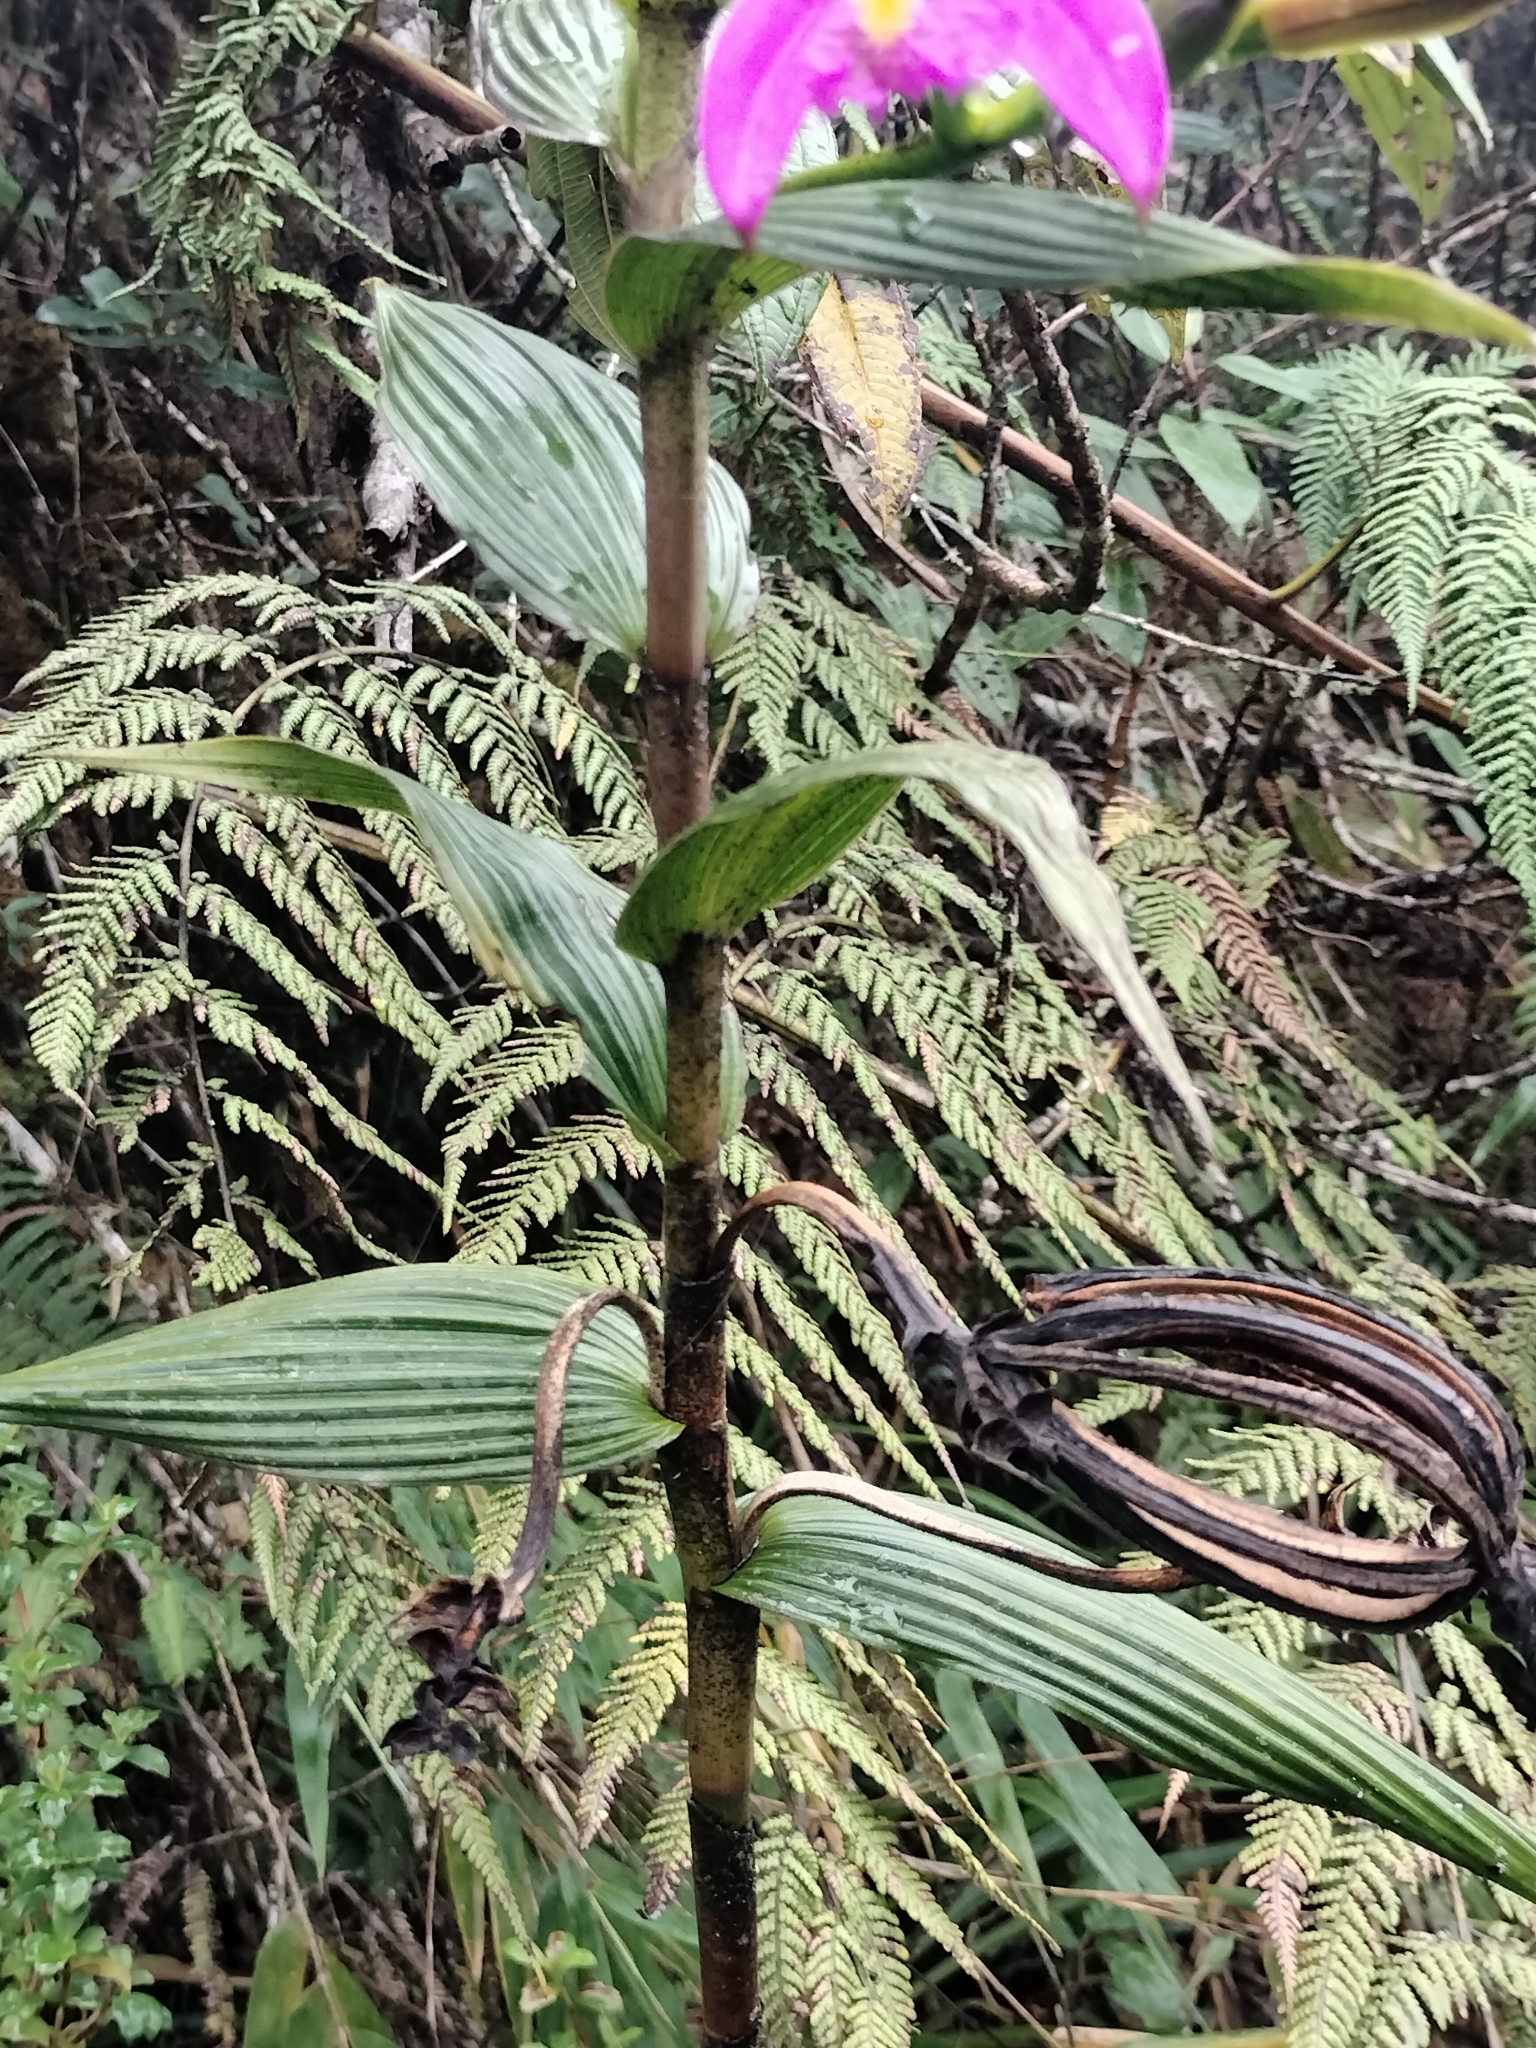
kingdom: Plantae
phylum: Tracheophyta
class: Liliopsida
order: Asparagales
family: Orchidaceae
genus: Sobralia
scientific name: Sobralia boliviensis
